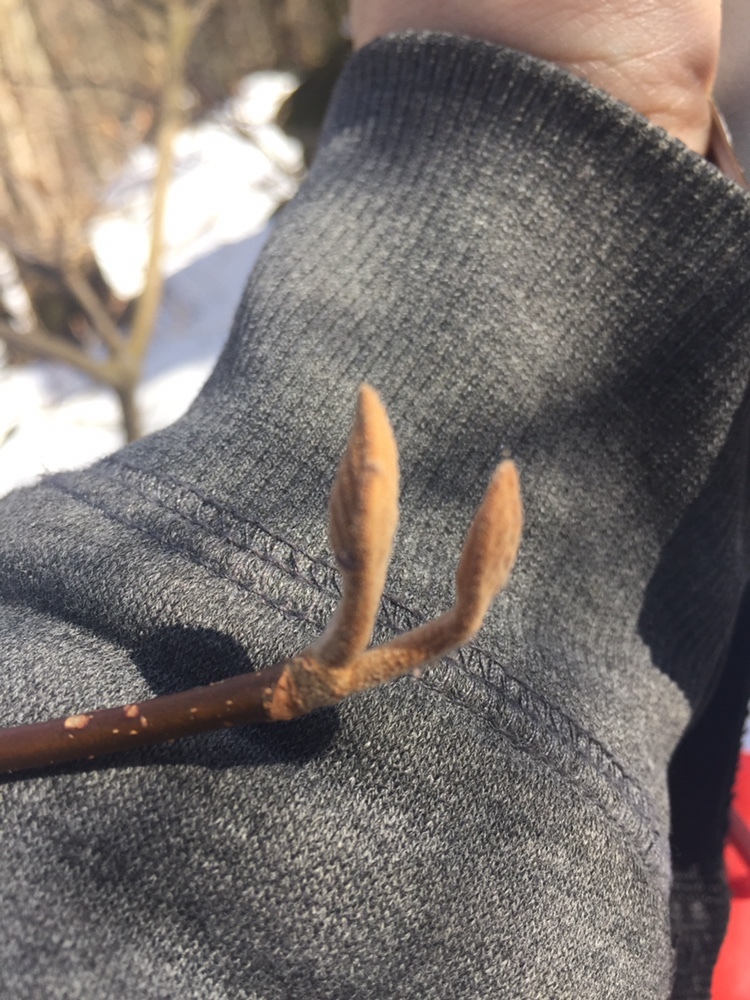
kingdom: Plantae
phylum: Tracheophyta
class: Magnoliopsida
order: Dipsacales
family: Viburnaceae
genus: Viburnum
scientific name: Viburnum lantanoides
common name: Hobblebush
